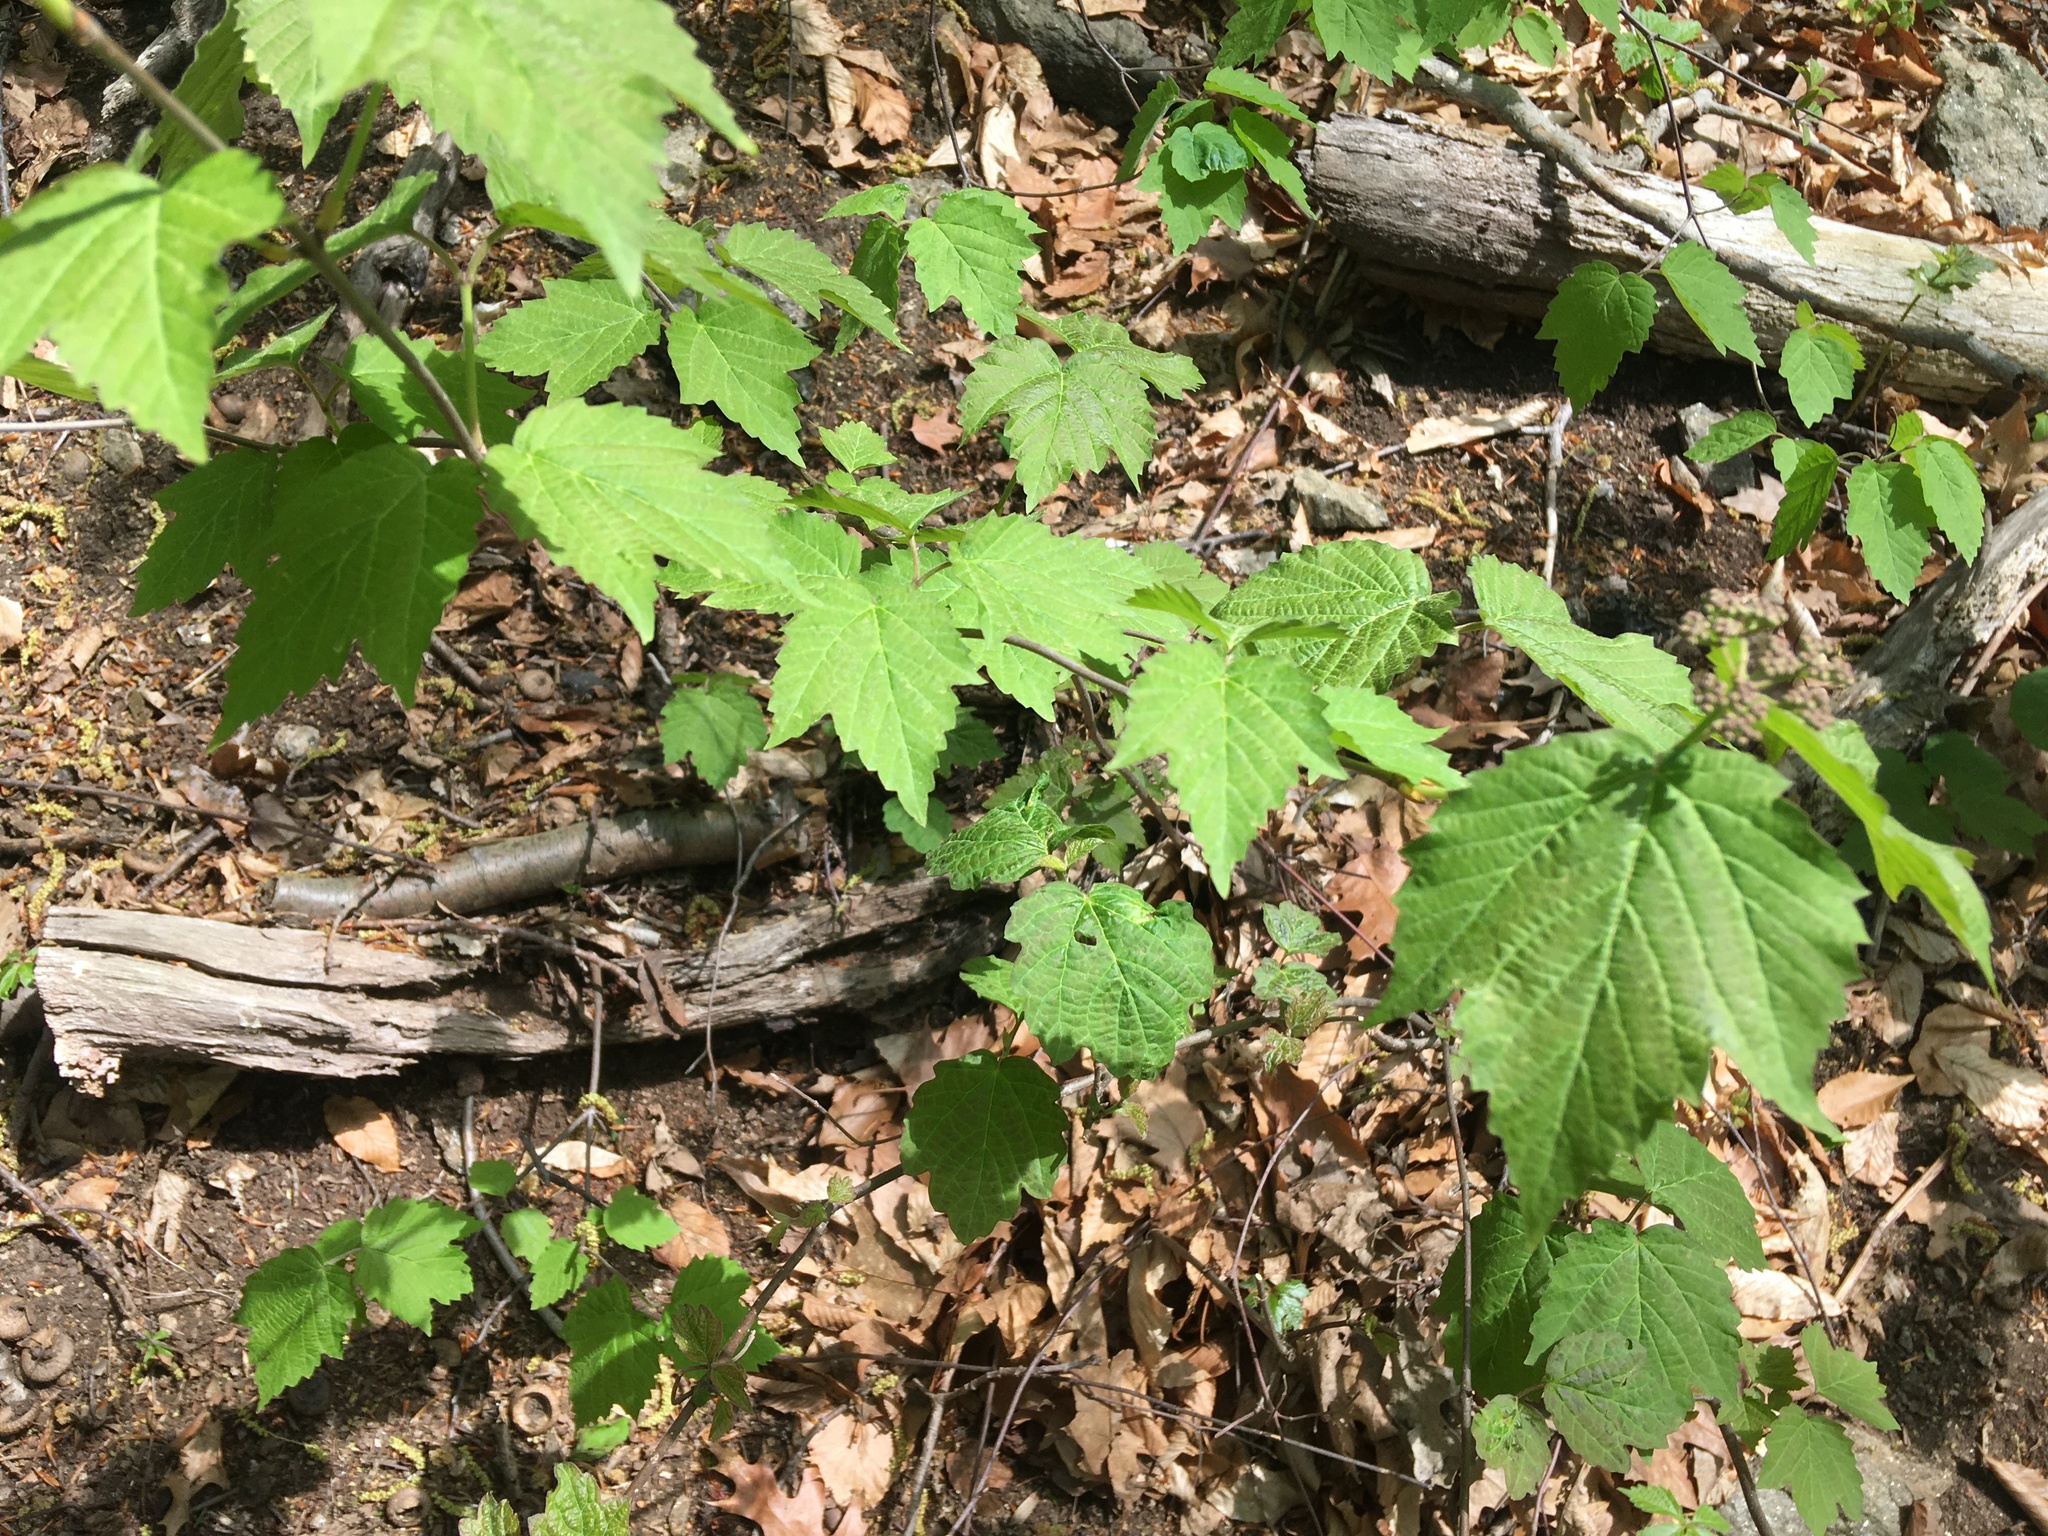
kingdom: Plantae
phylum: Tracheophyta
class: Magnoliopsida
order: Dipsacales
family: Viburnaceae
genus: Viburnum
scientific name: Viburnum acerifolium
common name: Dockmackie
